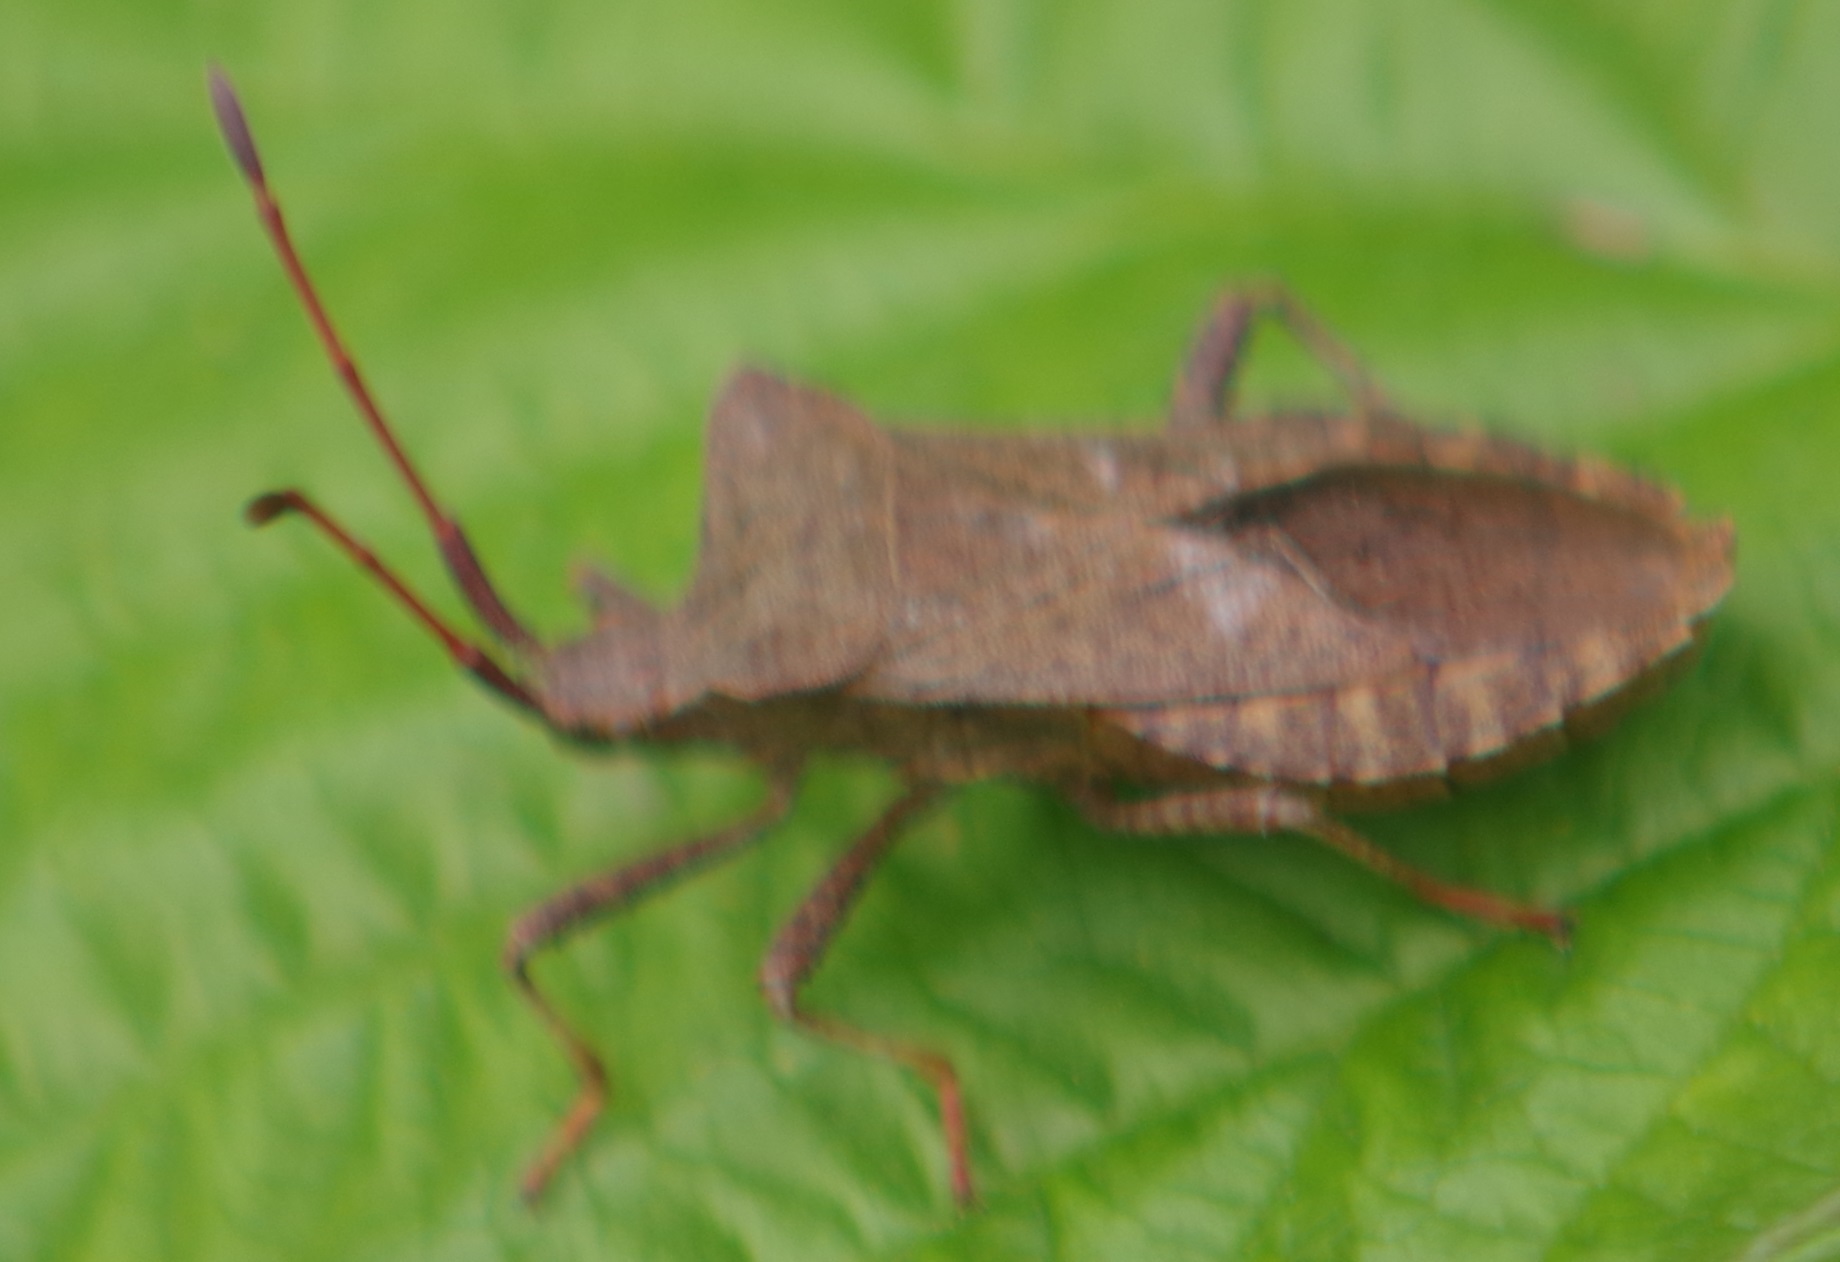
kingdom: Animalia
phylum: Arthropoda
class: Insecta
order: Hemiptera
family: Coreidae
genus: Coreus
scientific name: Coreus marginatus
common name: Dock bug
